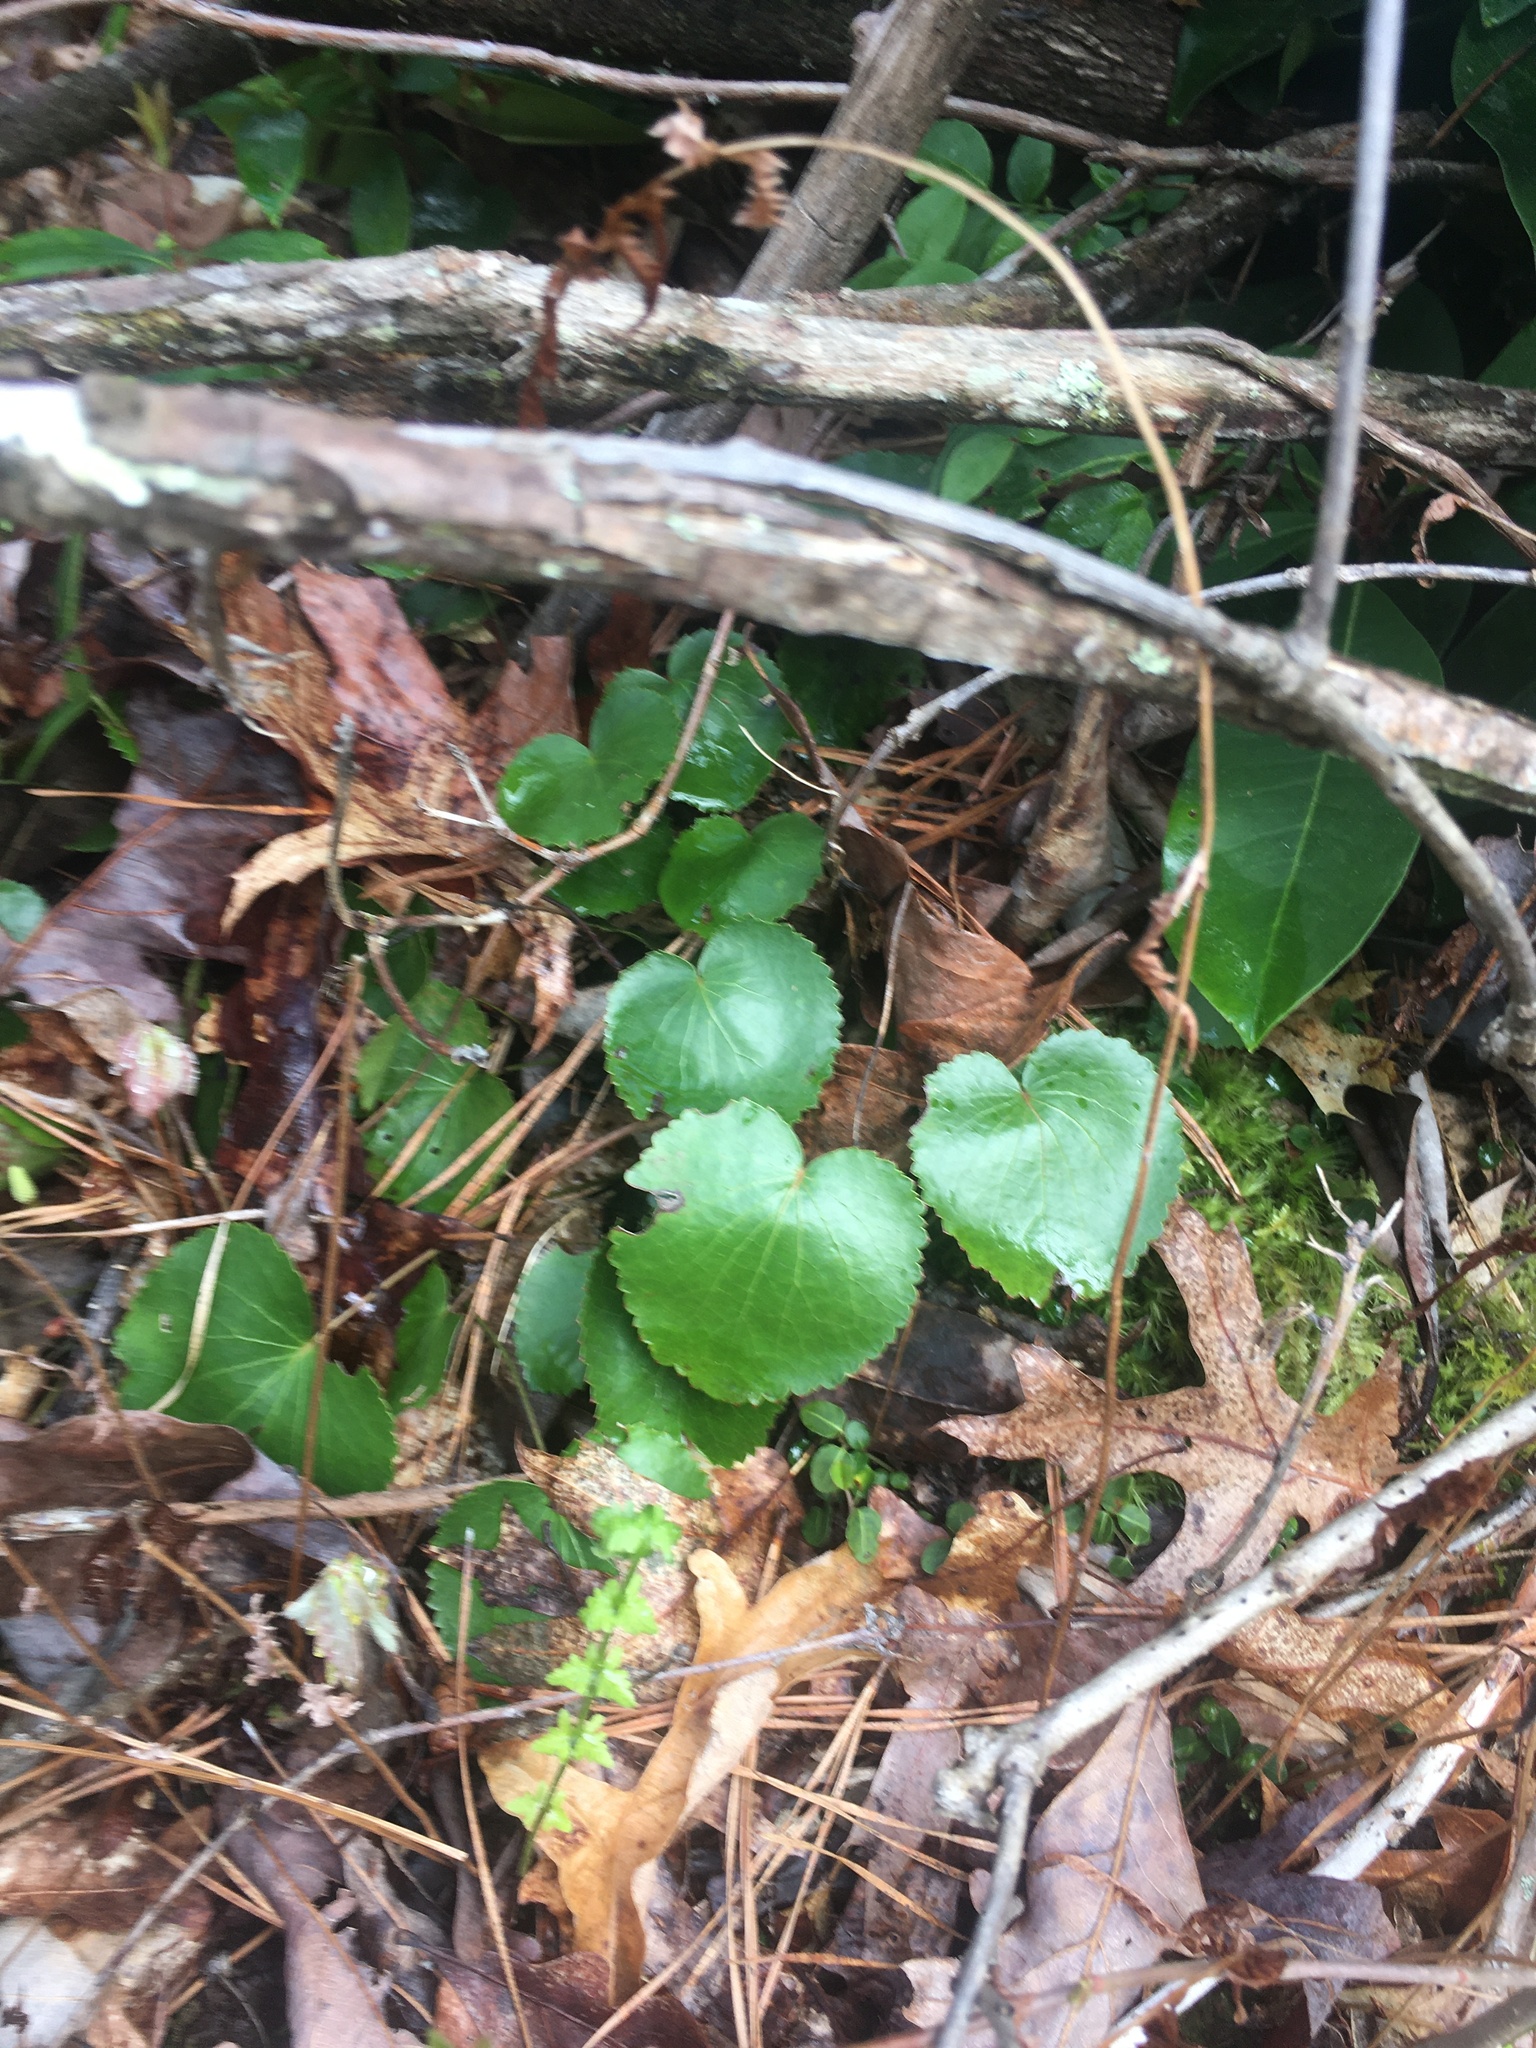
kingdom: Plantae
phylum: Tracheophyta
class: Magnoliopsida
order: Ericales
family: Diapensiaceae
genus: Galax
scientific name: Galax urceolata
